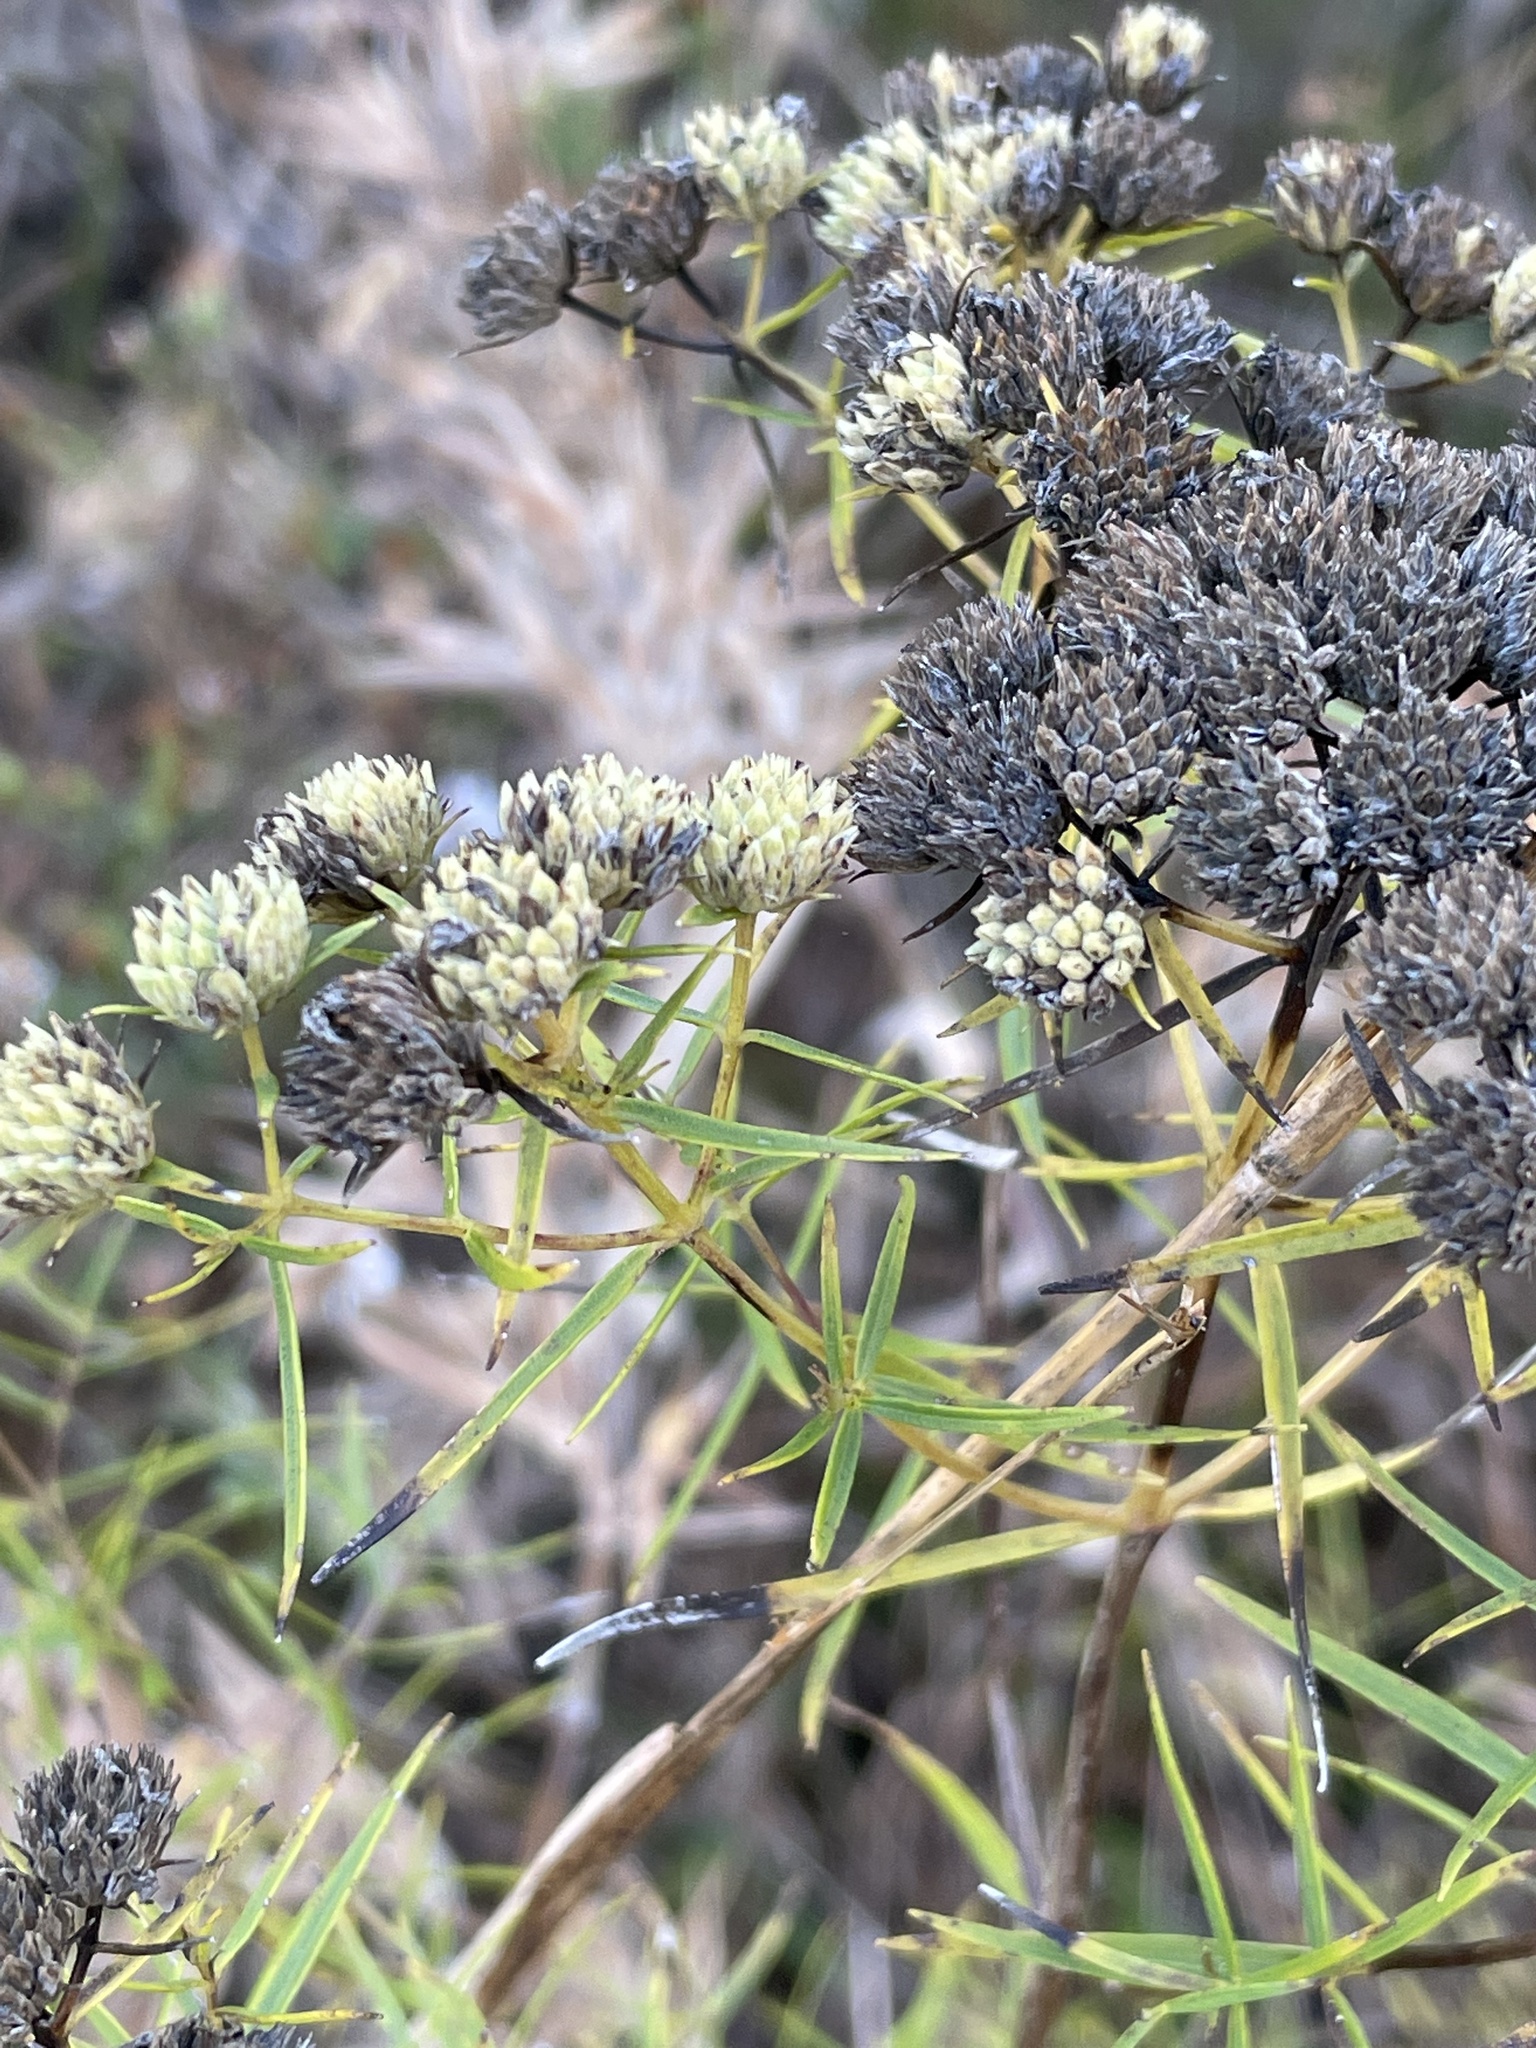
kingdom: Plantae
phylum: Tracheophyta
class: Magnoliopsida
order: Lamiales
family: Lamiaceae
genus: Pycnanthemum
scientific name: Pycnanthemum tenuifolium
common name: Narrow-leaf mountain-mint
